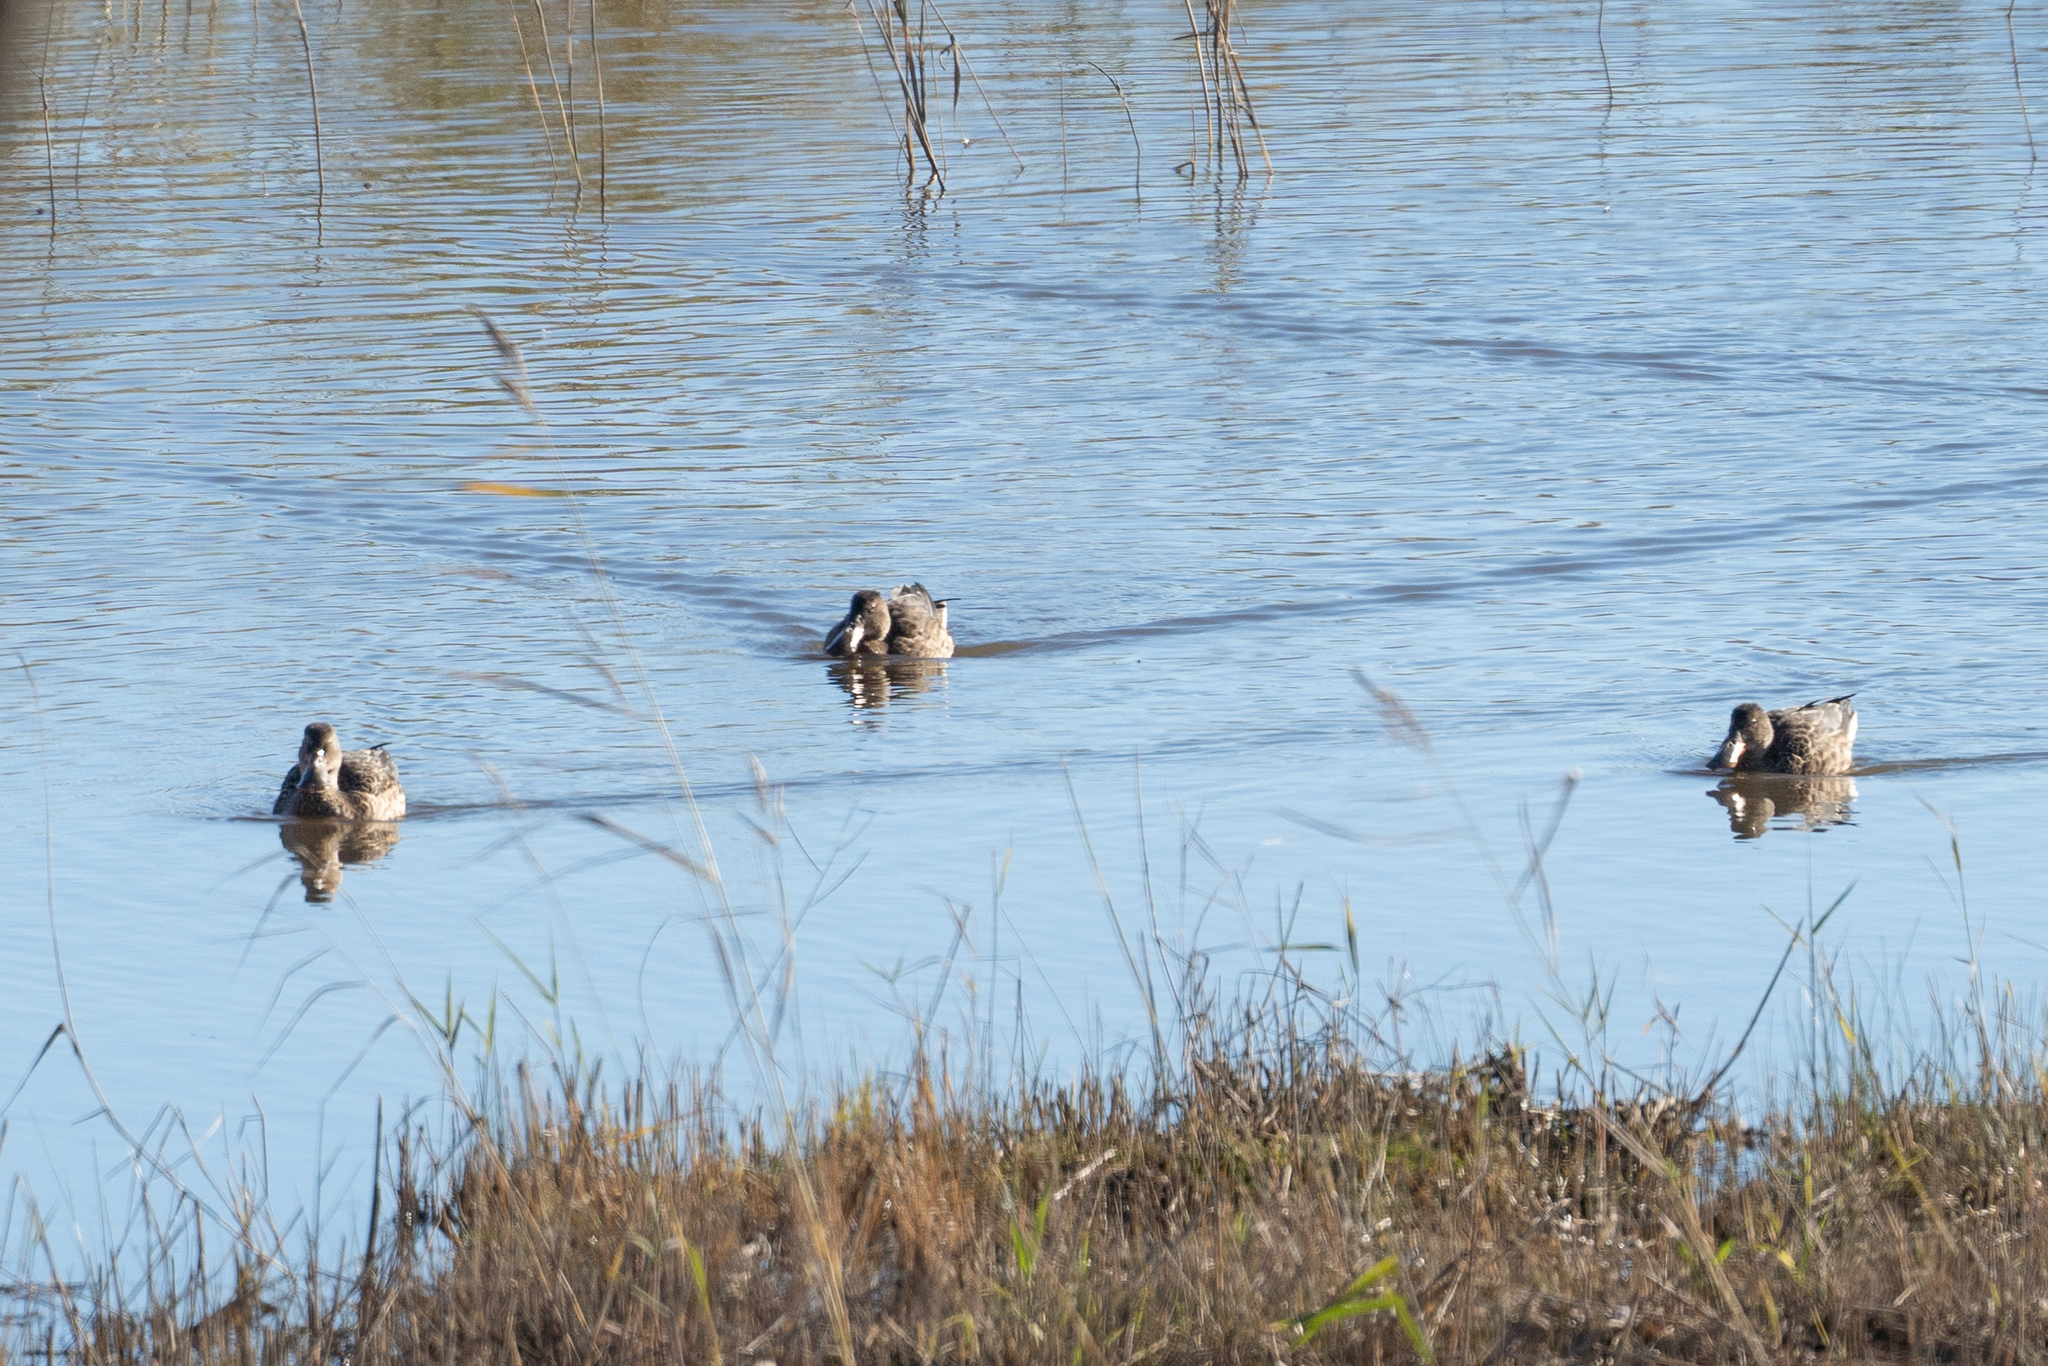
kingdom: Animalia
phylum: Chordata
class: Aves
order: Anseriformes
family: Anatidae
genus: Spatula
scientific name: Spatula clypeata
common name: Northern shoveler
